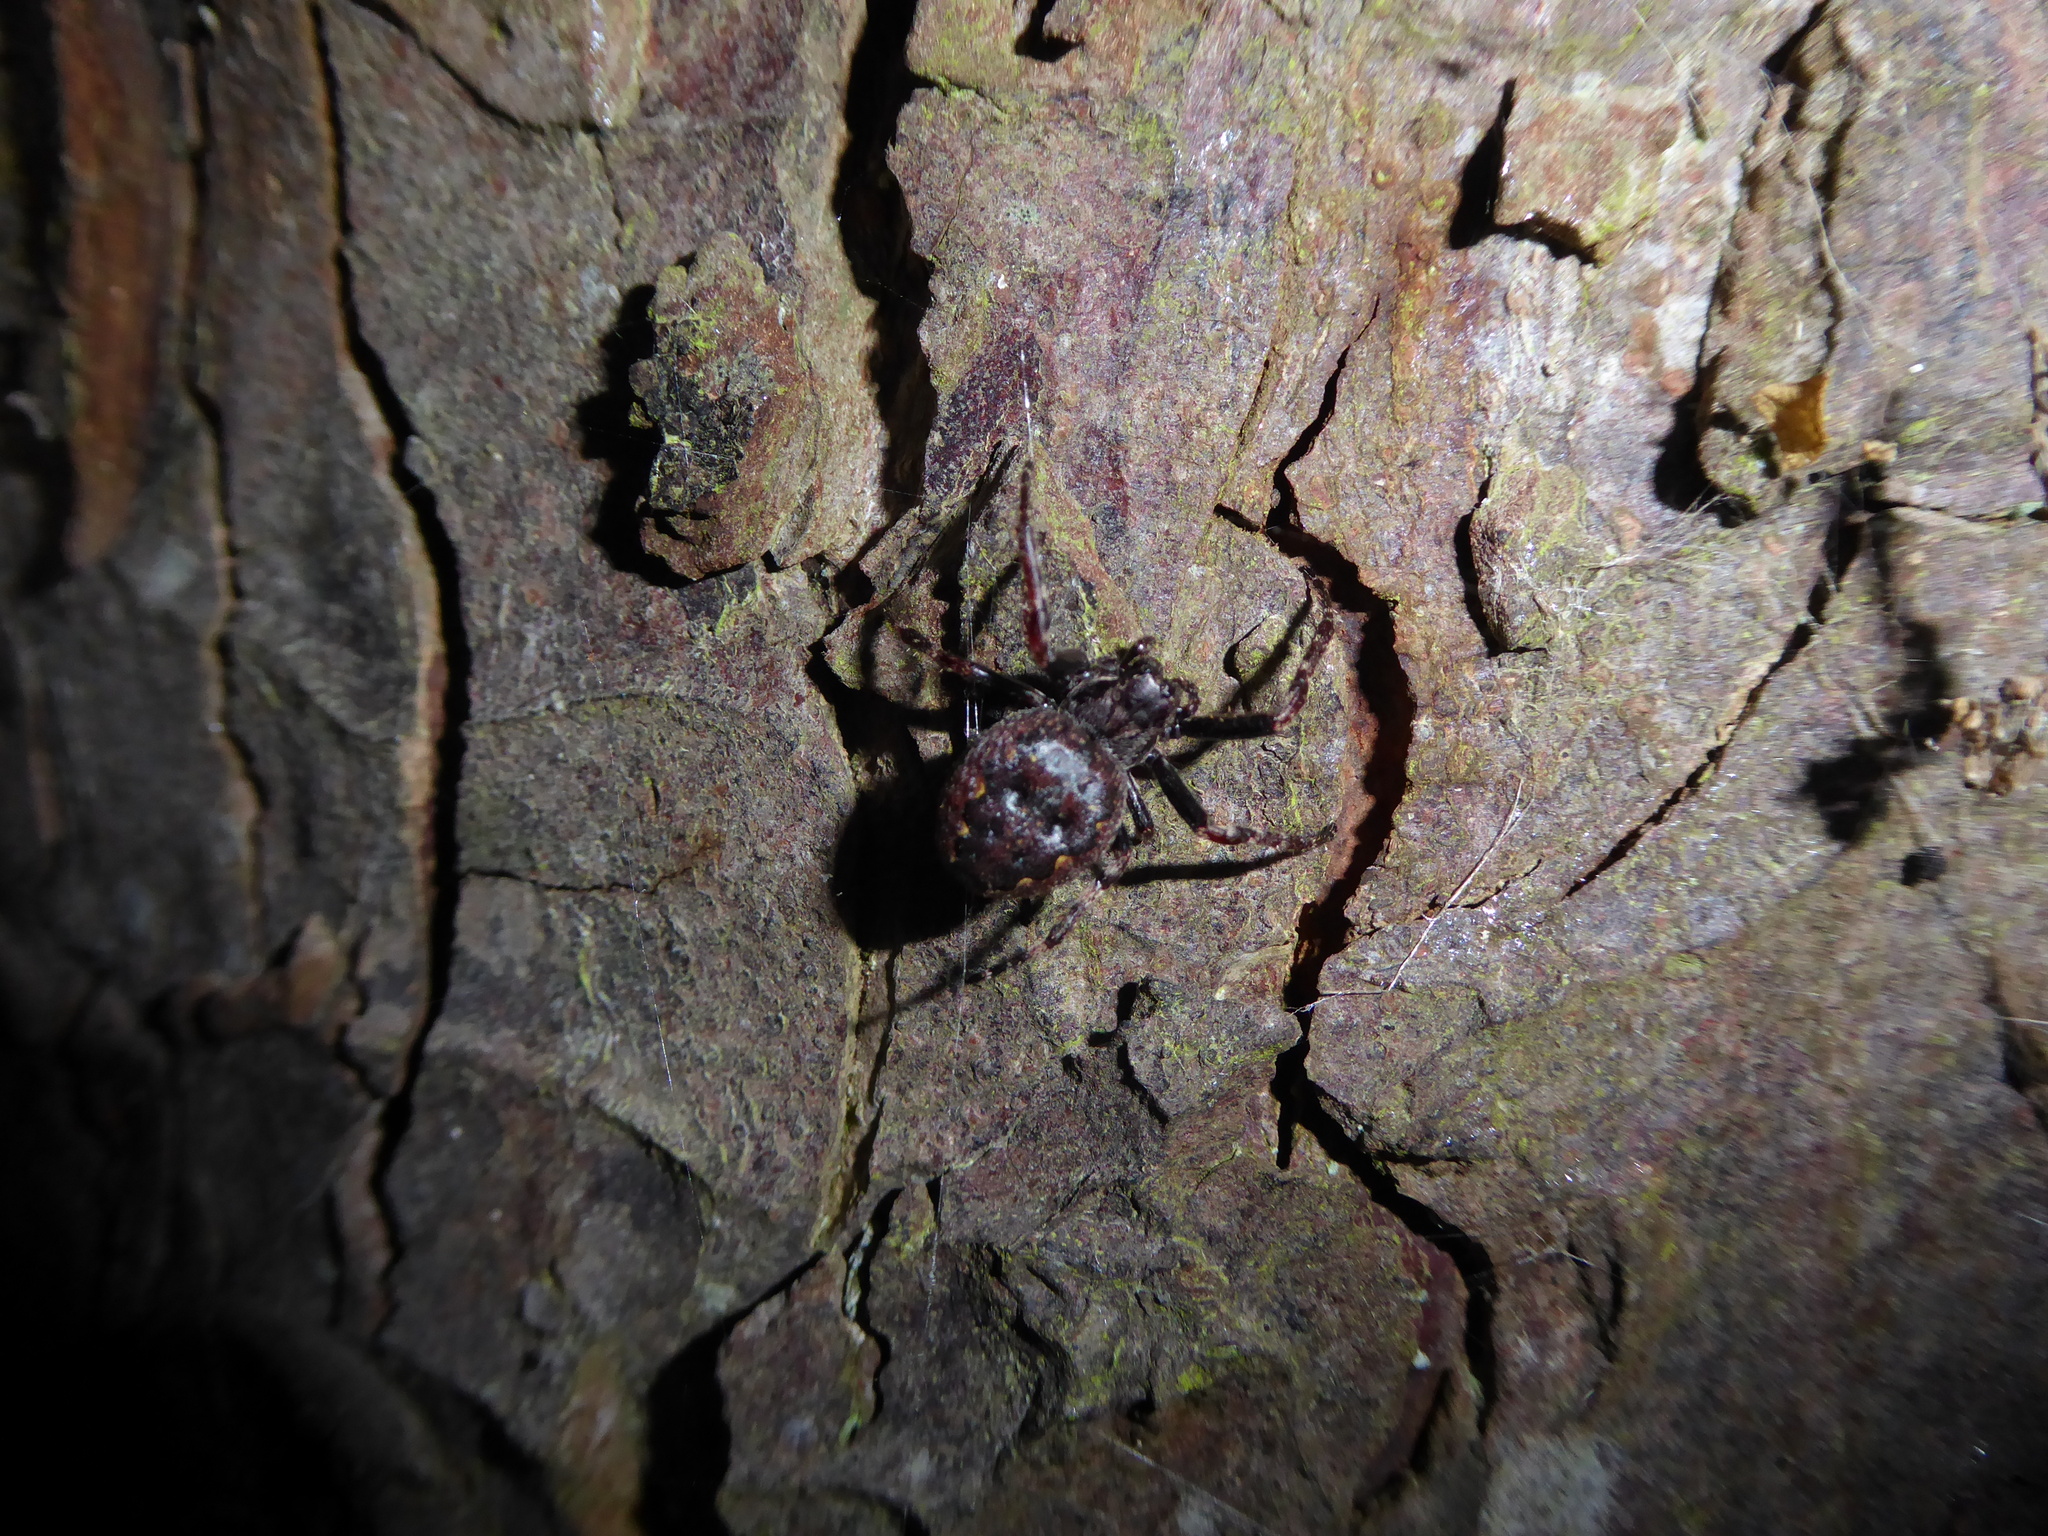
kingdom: Animalia
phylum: Arthropoda
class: Arachnida
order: Araneae
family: Araneidae
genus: Nuctenea
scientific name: Nuctenea umbratica
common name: Toad spider
